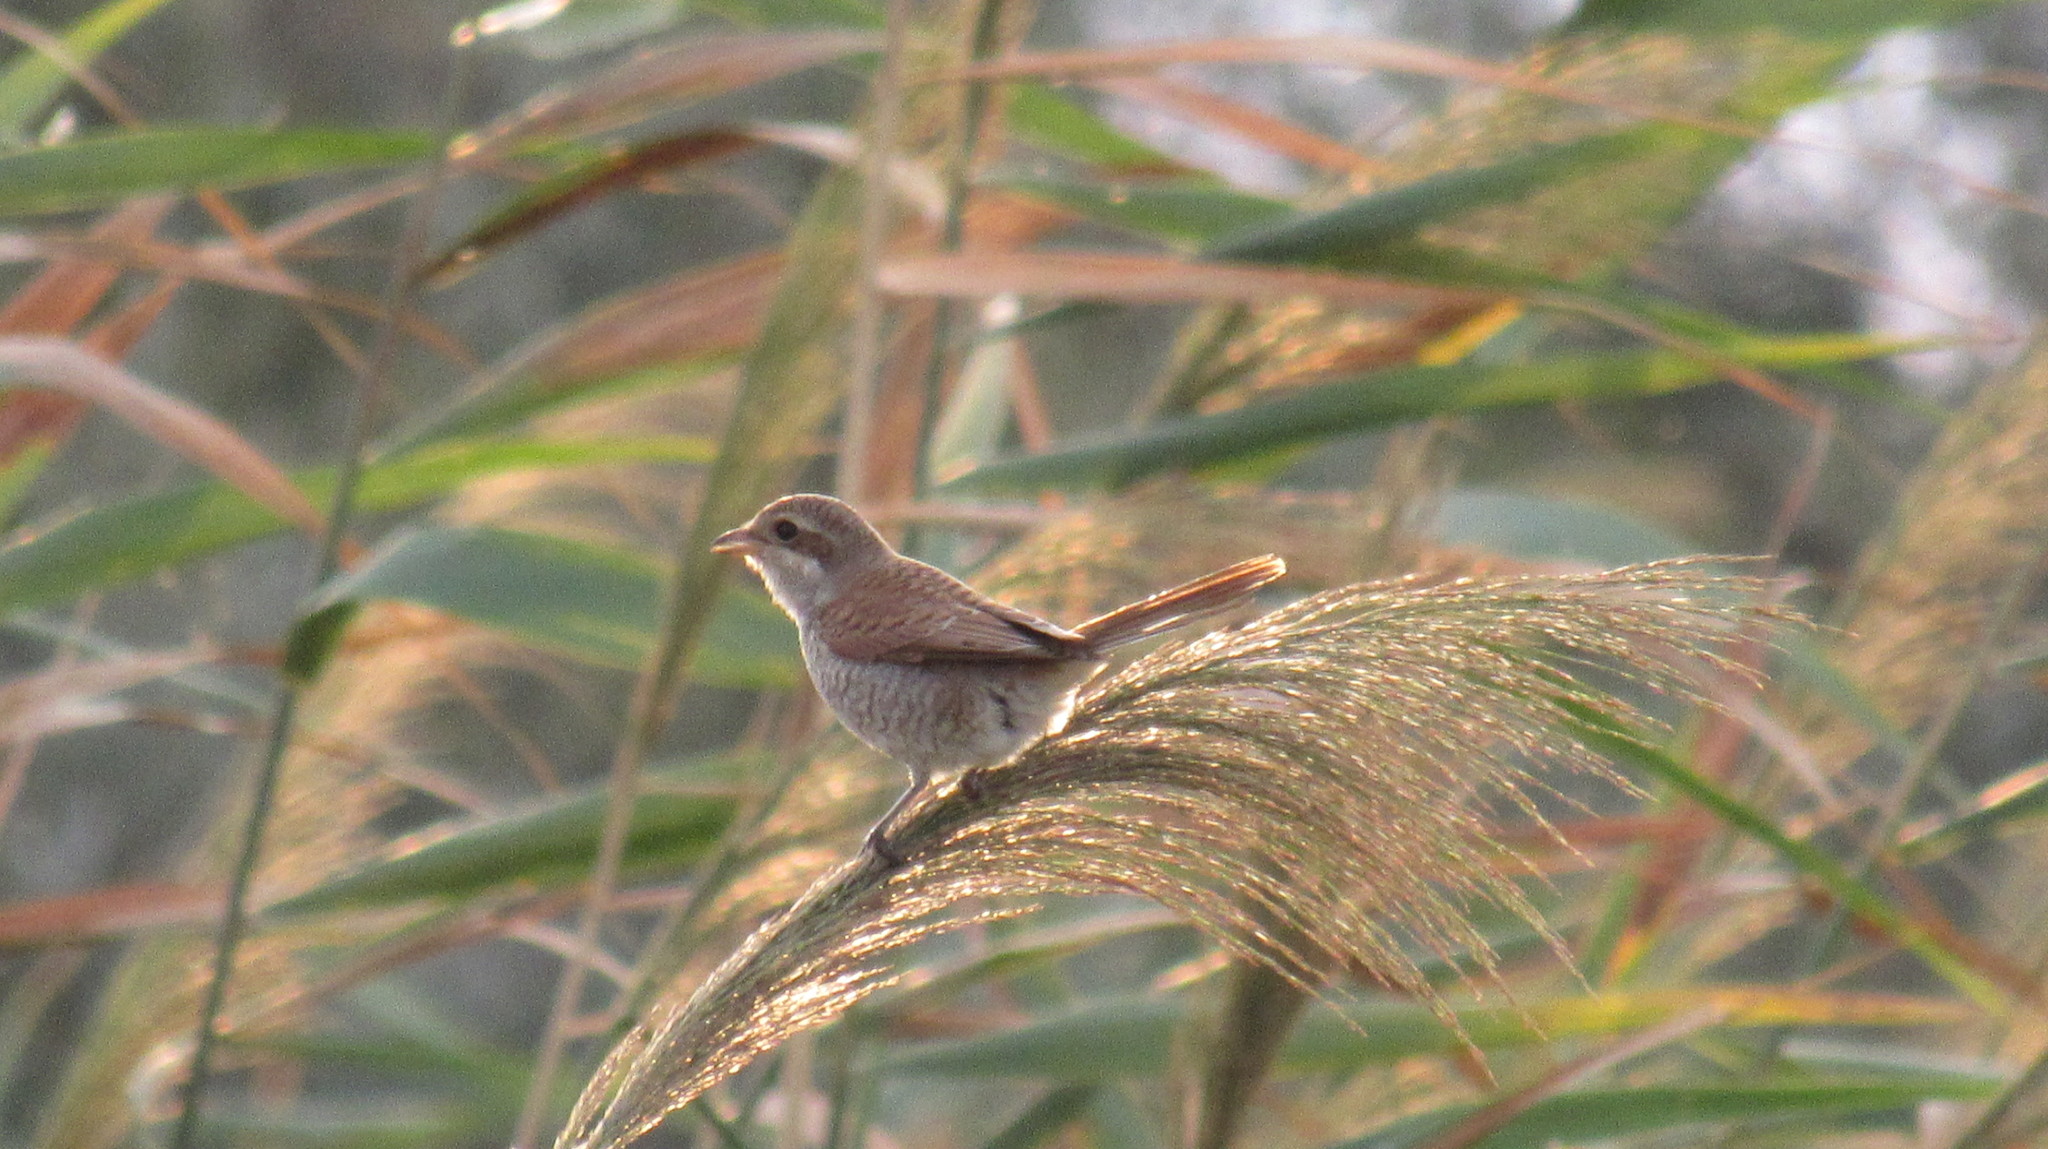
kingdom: Animalia
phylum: Chordata
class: Aves
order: Passeriformes
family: Laniidae
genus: Lanius
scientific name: Lanius collurio
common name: Red-backed shrike
